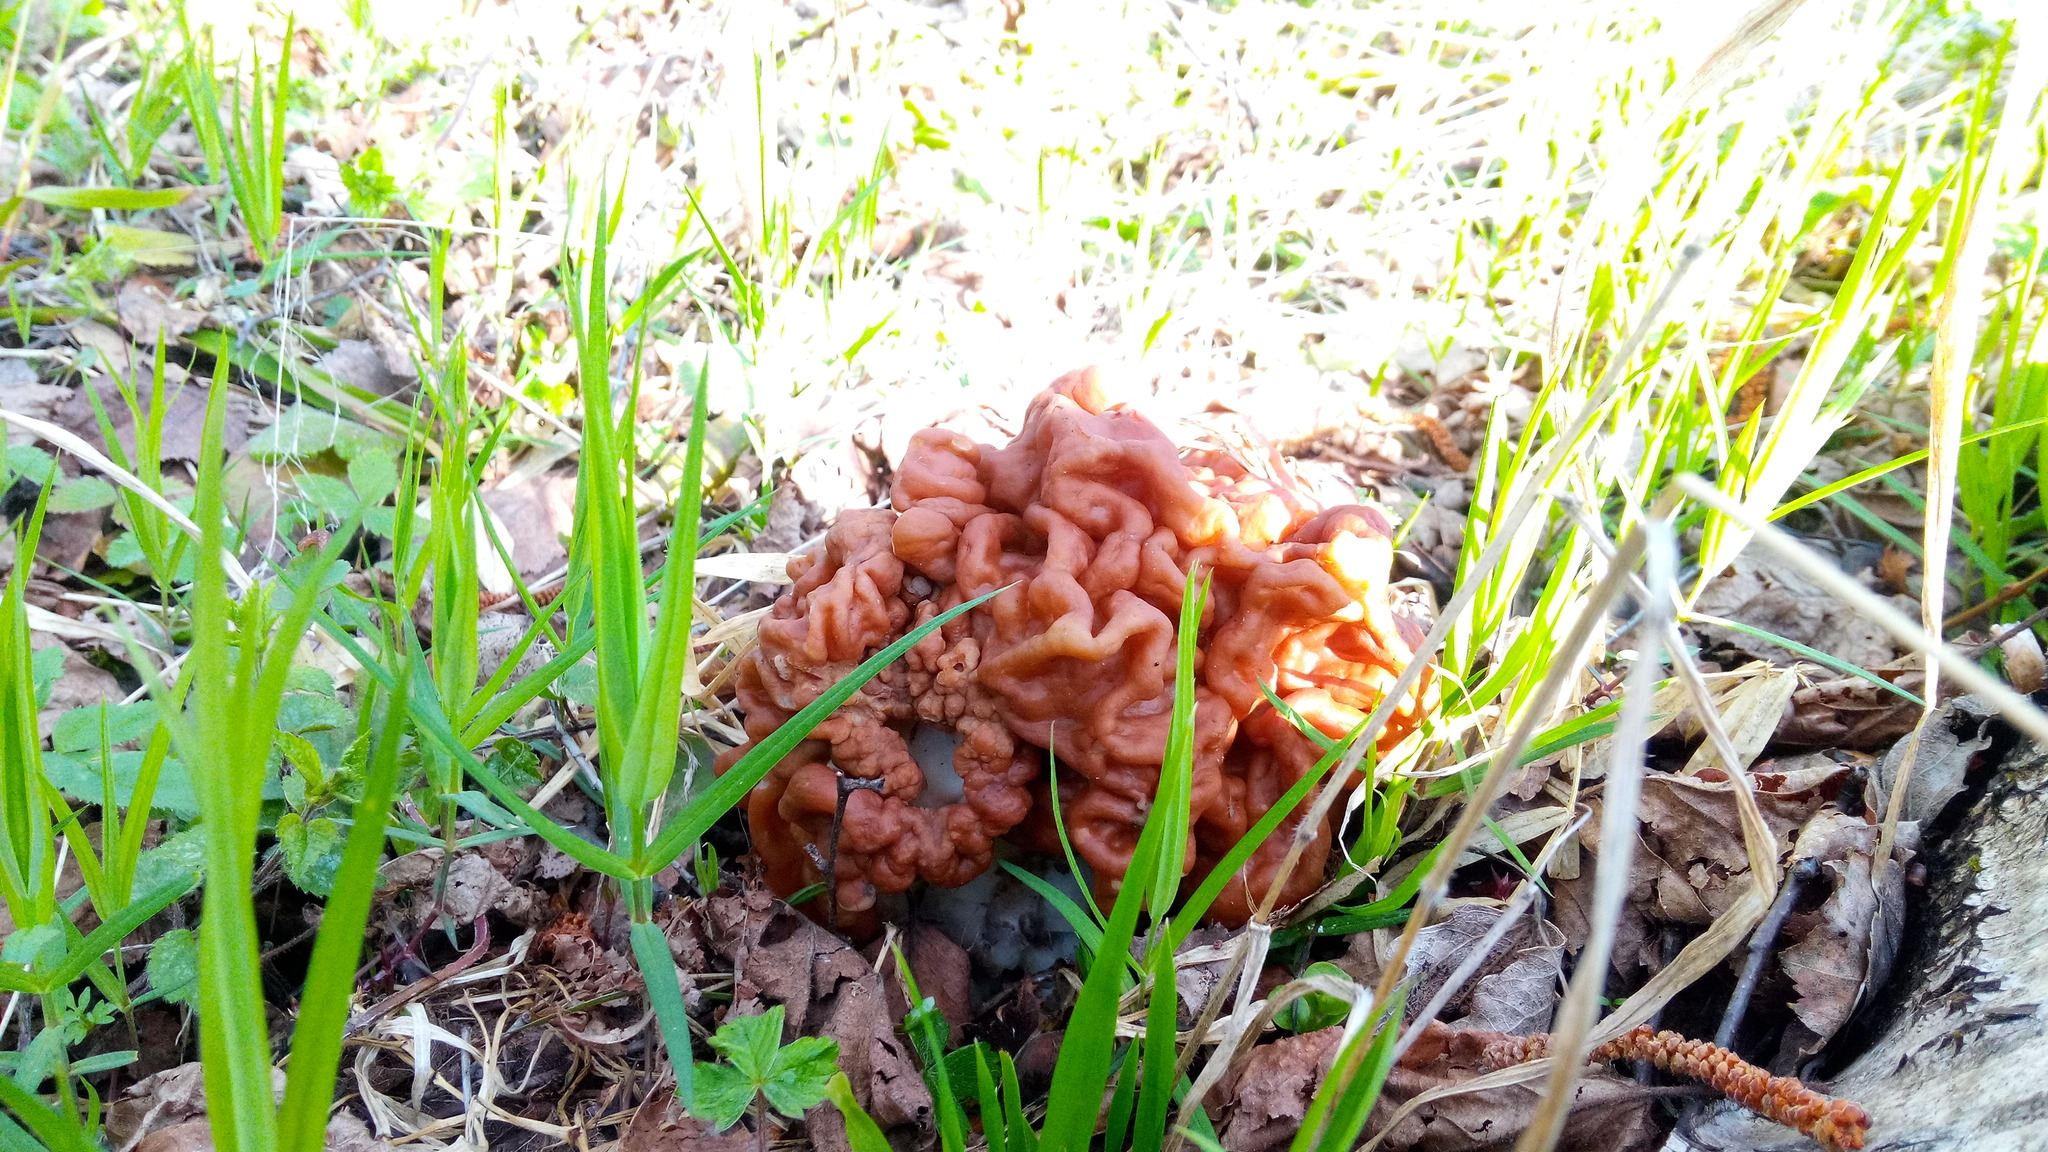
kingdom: Fungi
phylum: Ascomycota
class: Pezizomycetes
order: Pezizales
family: Discinaceae
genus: Gyromitra
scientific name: Gyromitra gigas
